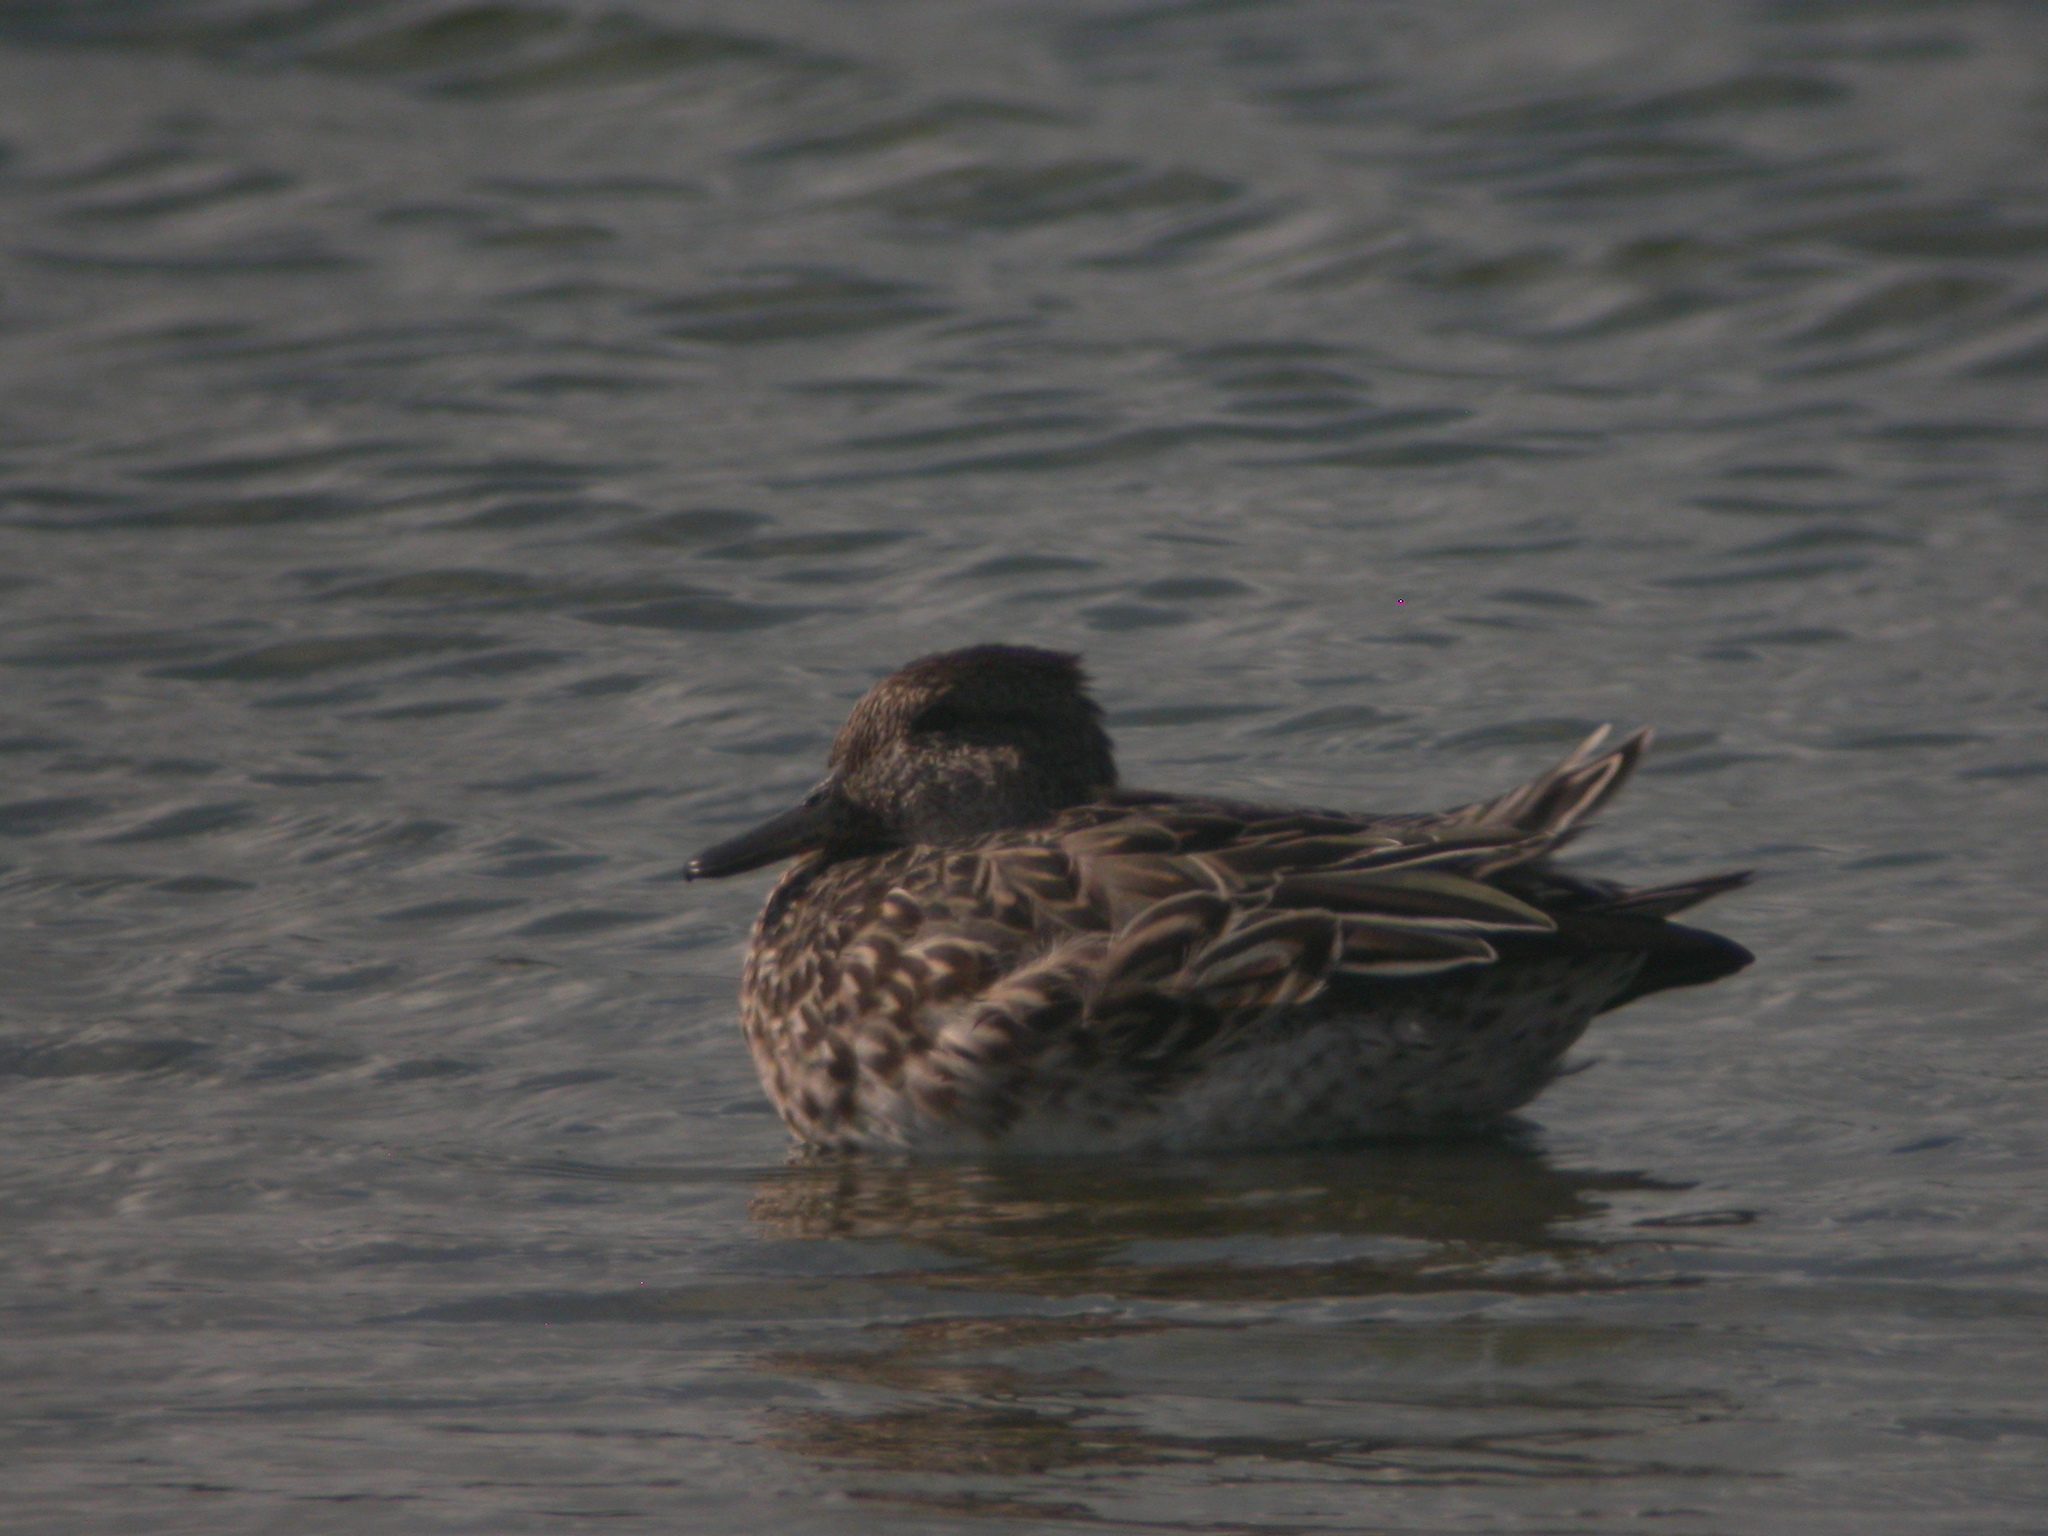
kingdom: Animalia
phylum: Chordata
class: Aves
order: Anseriformes
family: Anatidae
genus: Anas
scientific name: Anas crecca
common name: Eurasian teal
